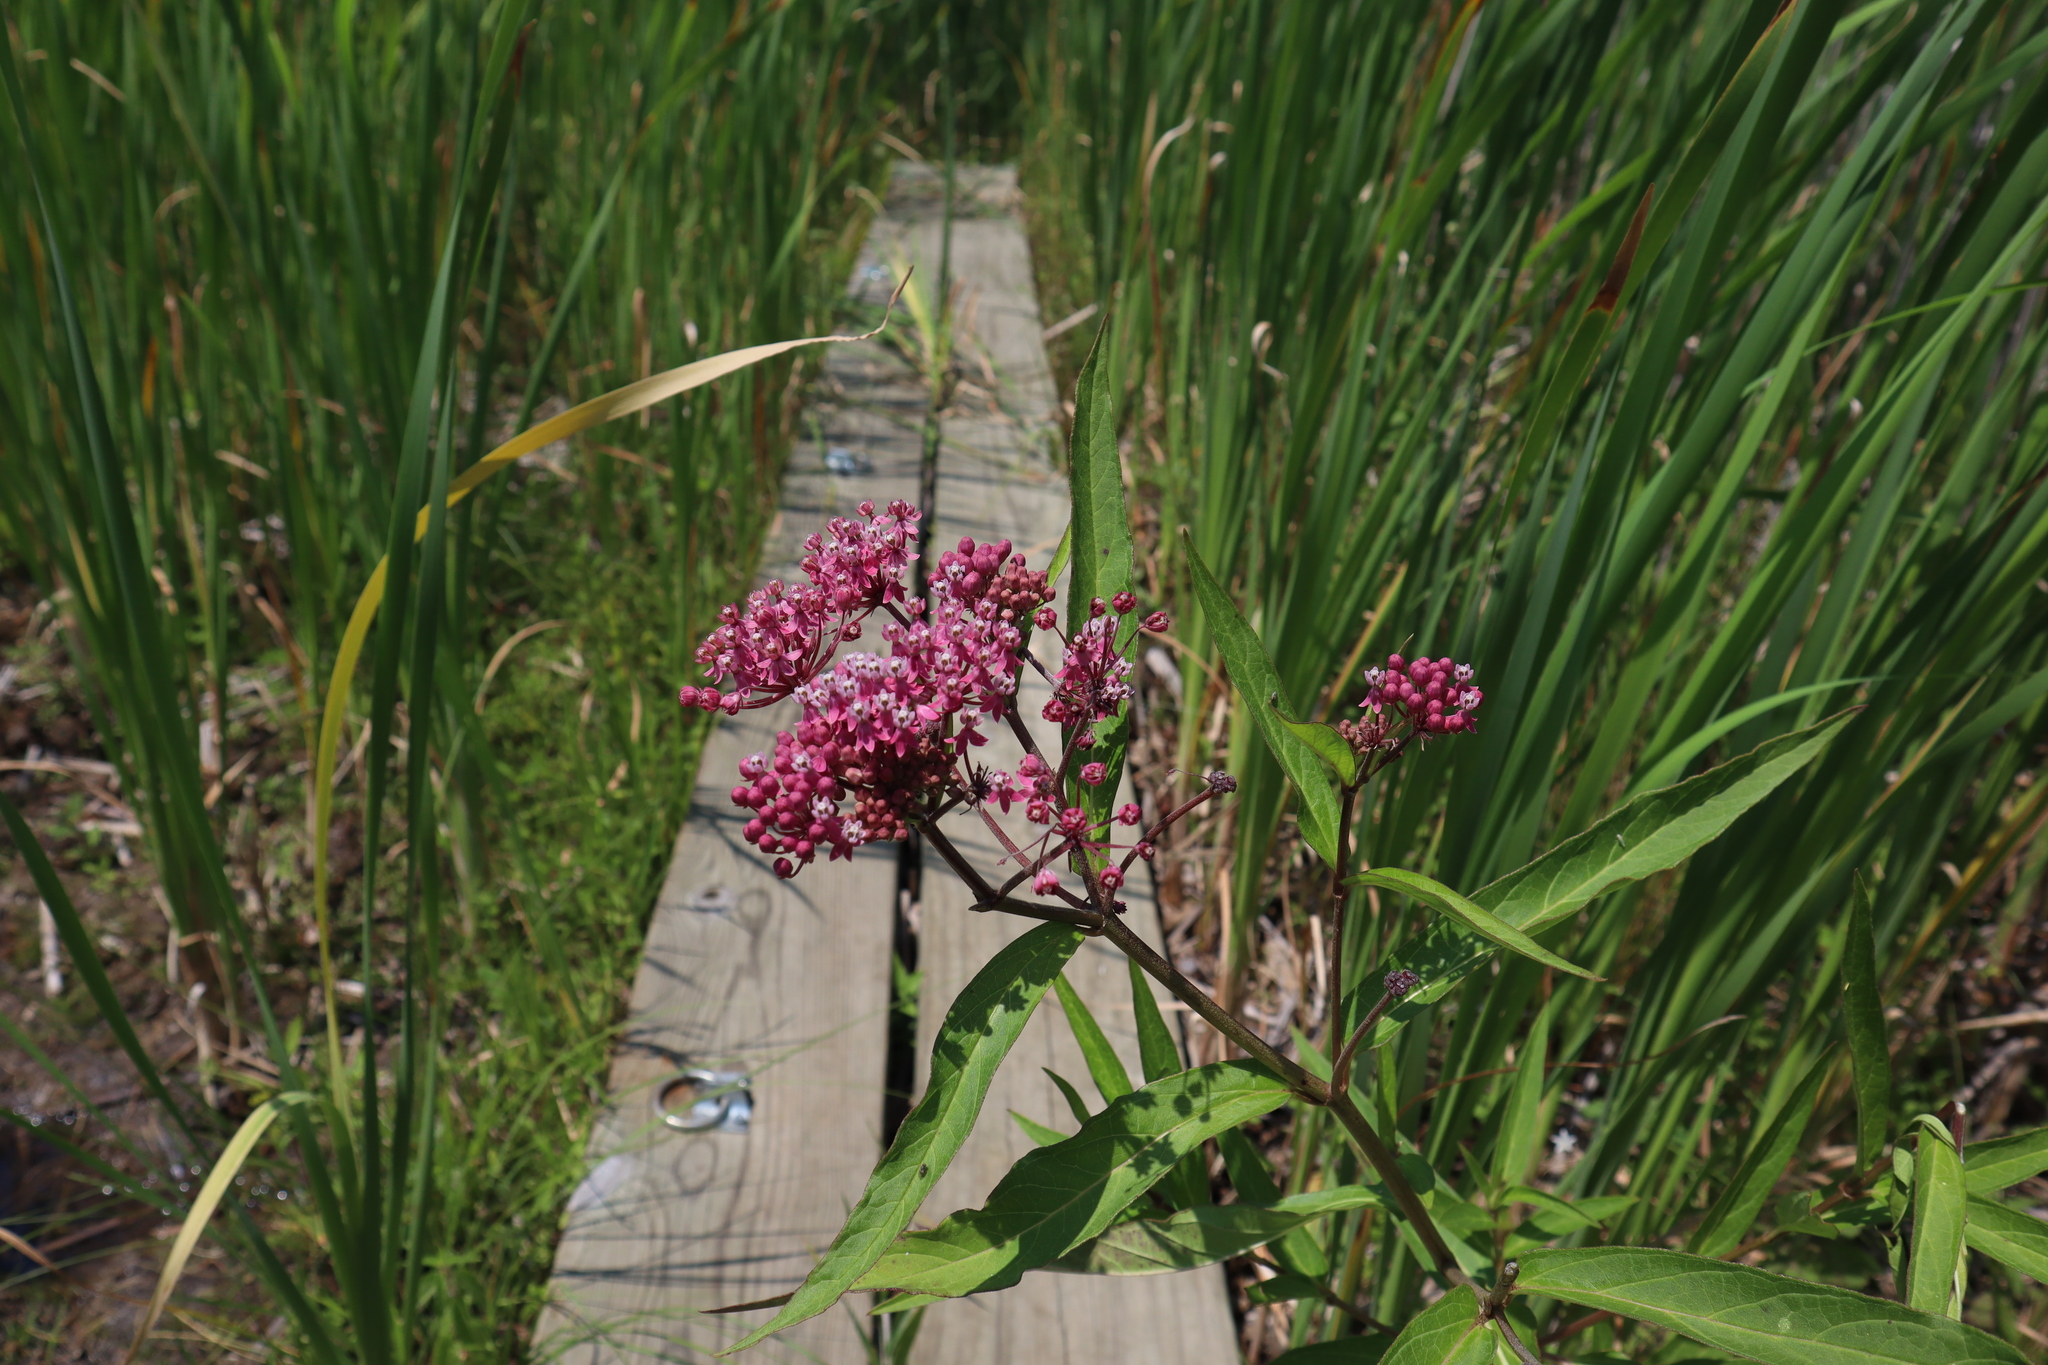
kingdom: Plantae
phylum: Tracheophyta
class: Magnoliopsida
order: Gentianales
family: Apocynaceae
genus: Asclepias
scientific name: Asclepias incarnata
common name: Swamp milkweed
